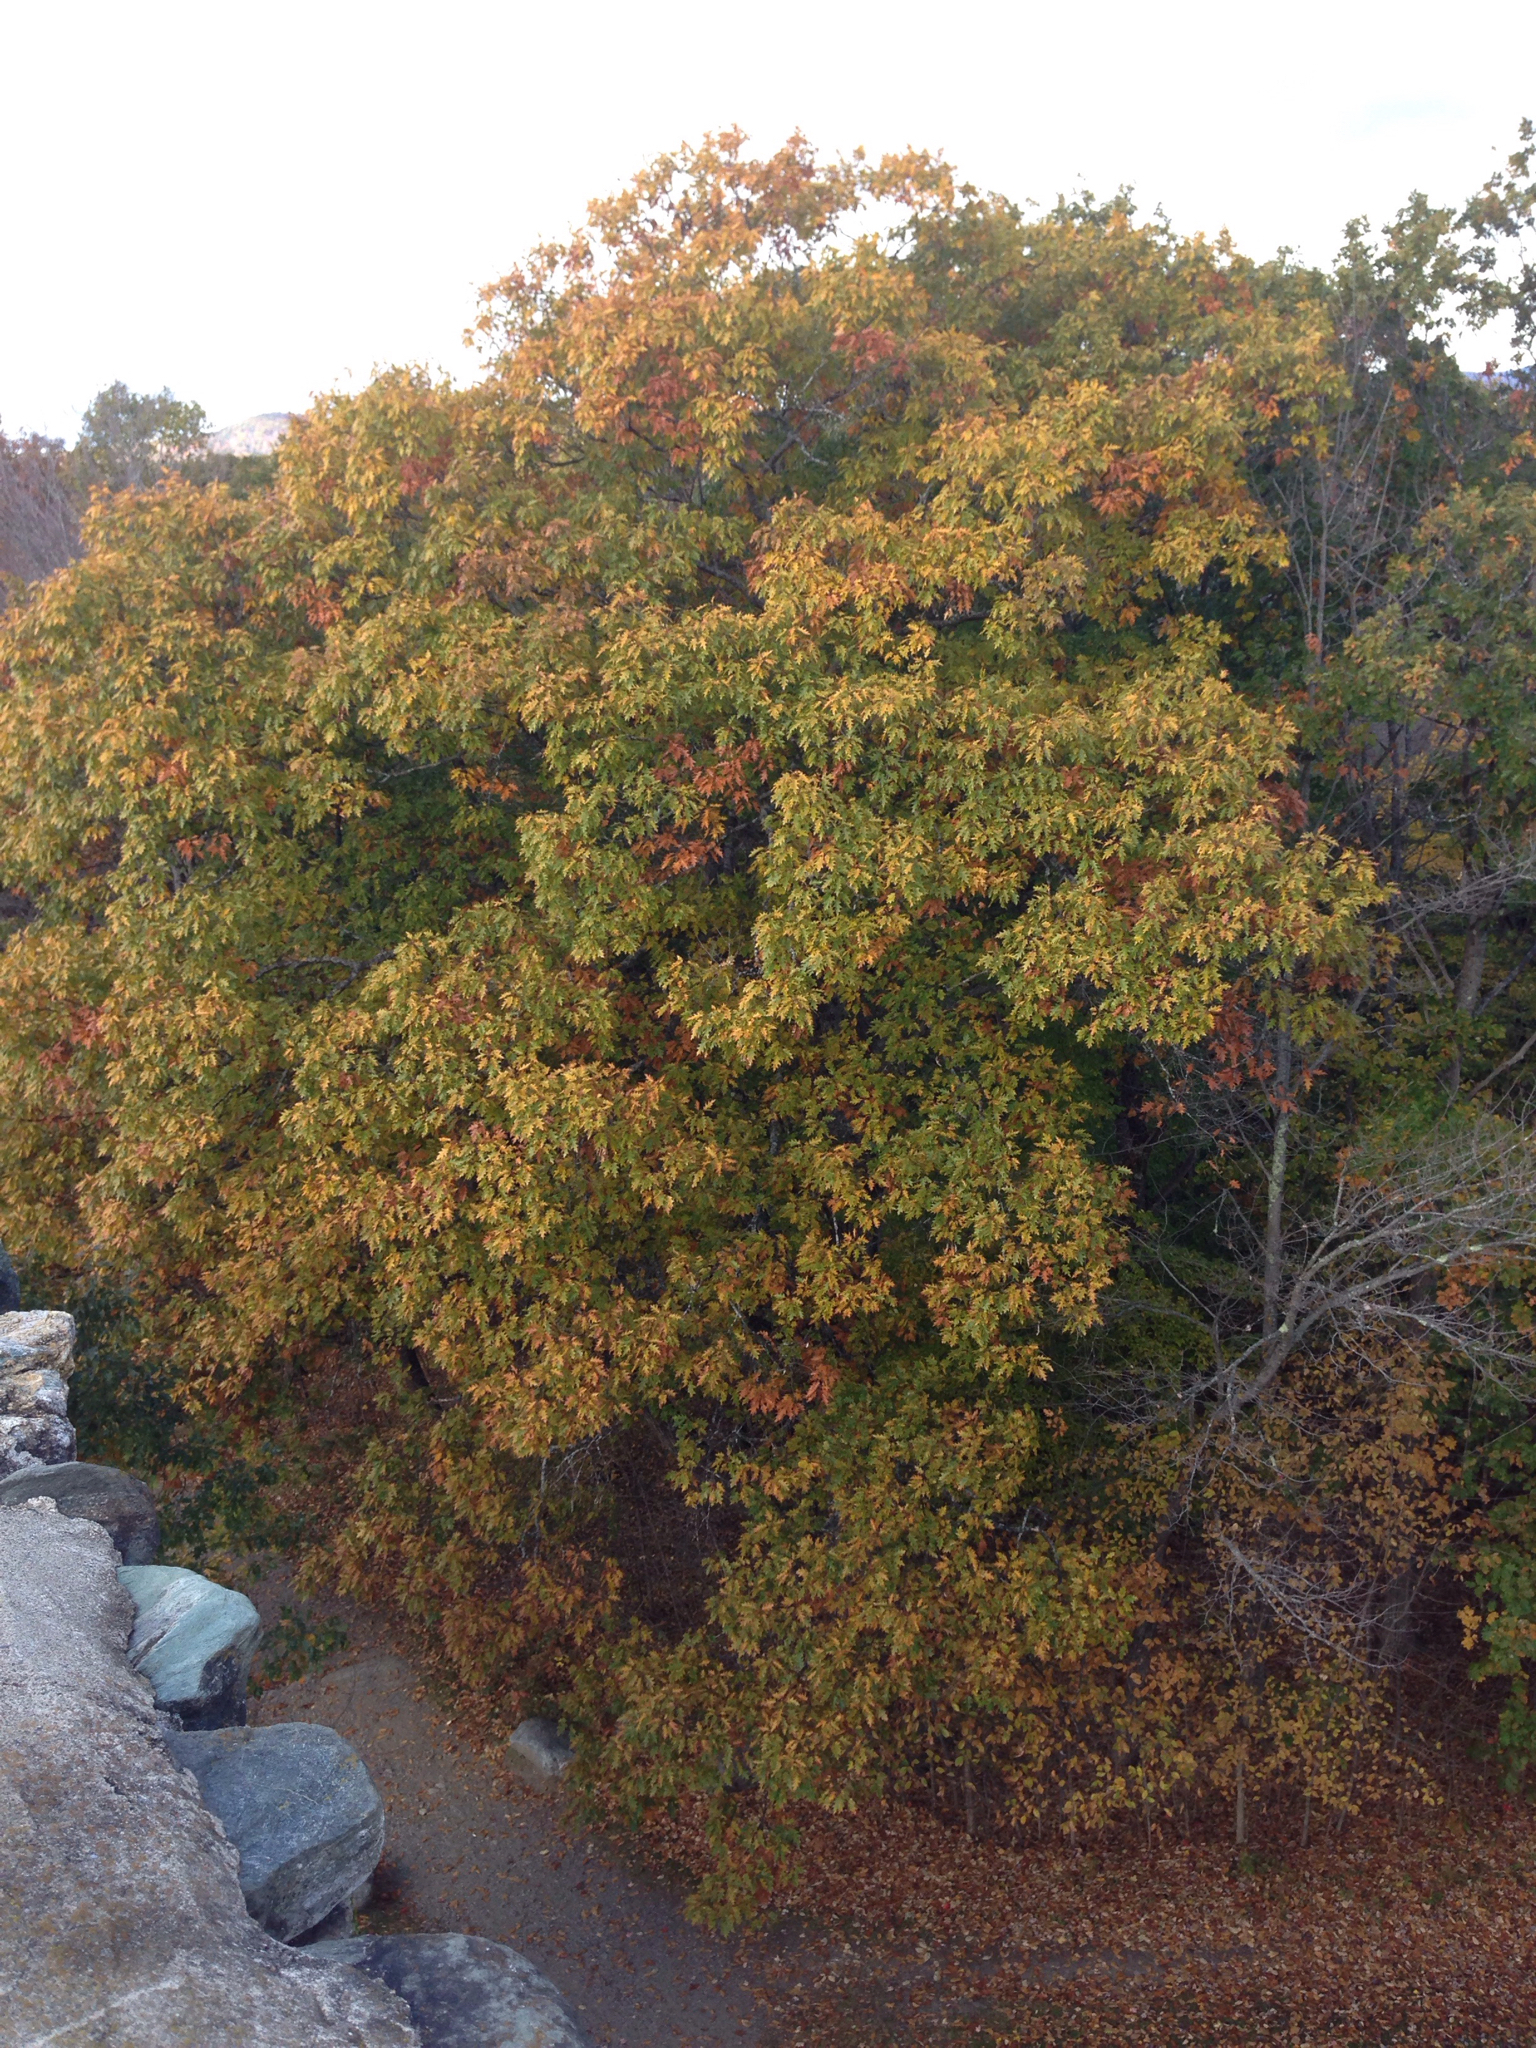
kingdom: Plantae
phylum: Tracheophyta
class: Magnoliopsida
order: Fagales
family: Fagaceae
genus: Quercus
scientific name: Quercus rubra
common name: Red oak
